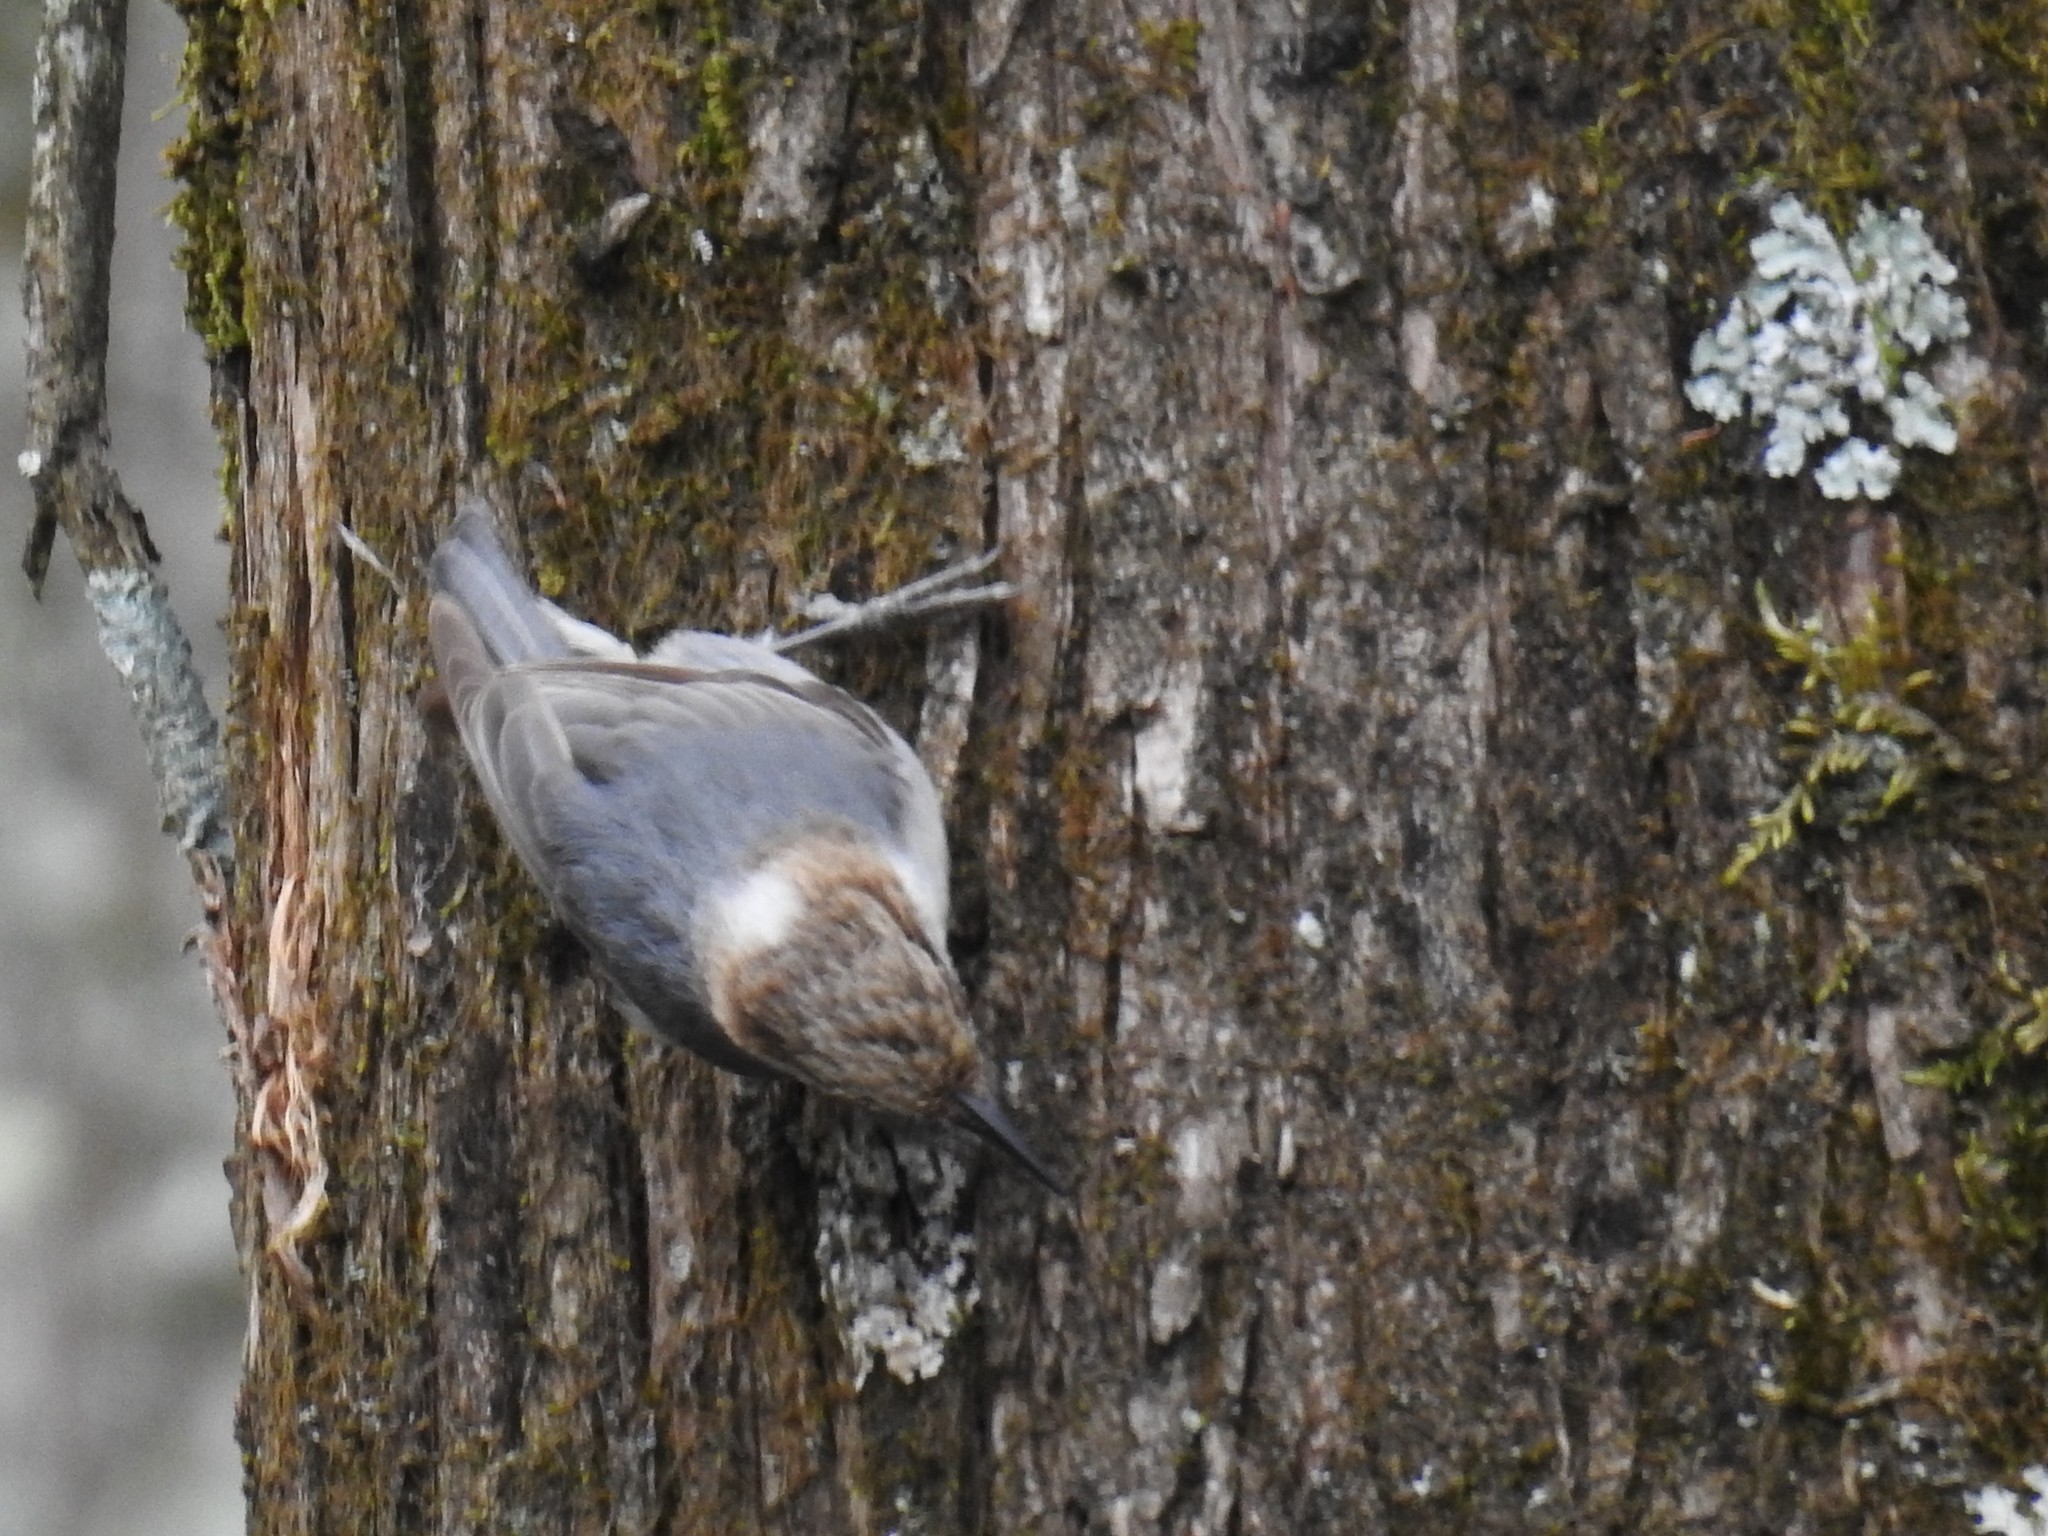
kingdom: Animalia
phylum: Chordata
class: Aves
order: Passeriformes
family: Sittidae
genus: Sitta
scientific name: Sitta pusilla
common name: Brown-headed nuthatch
